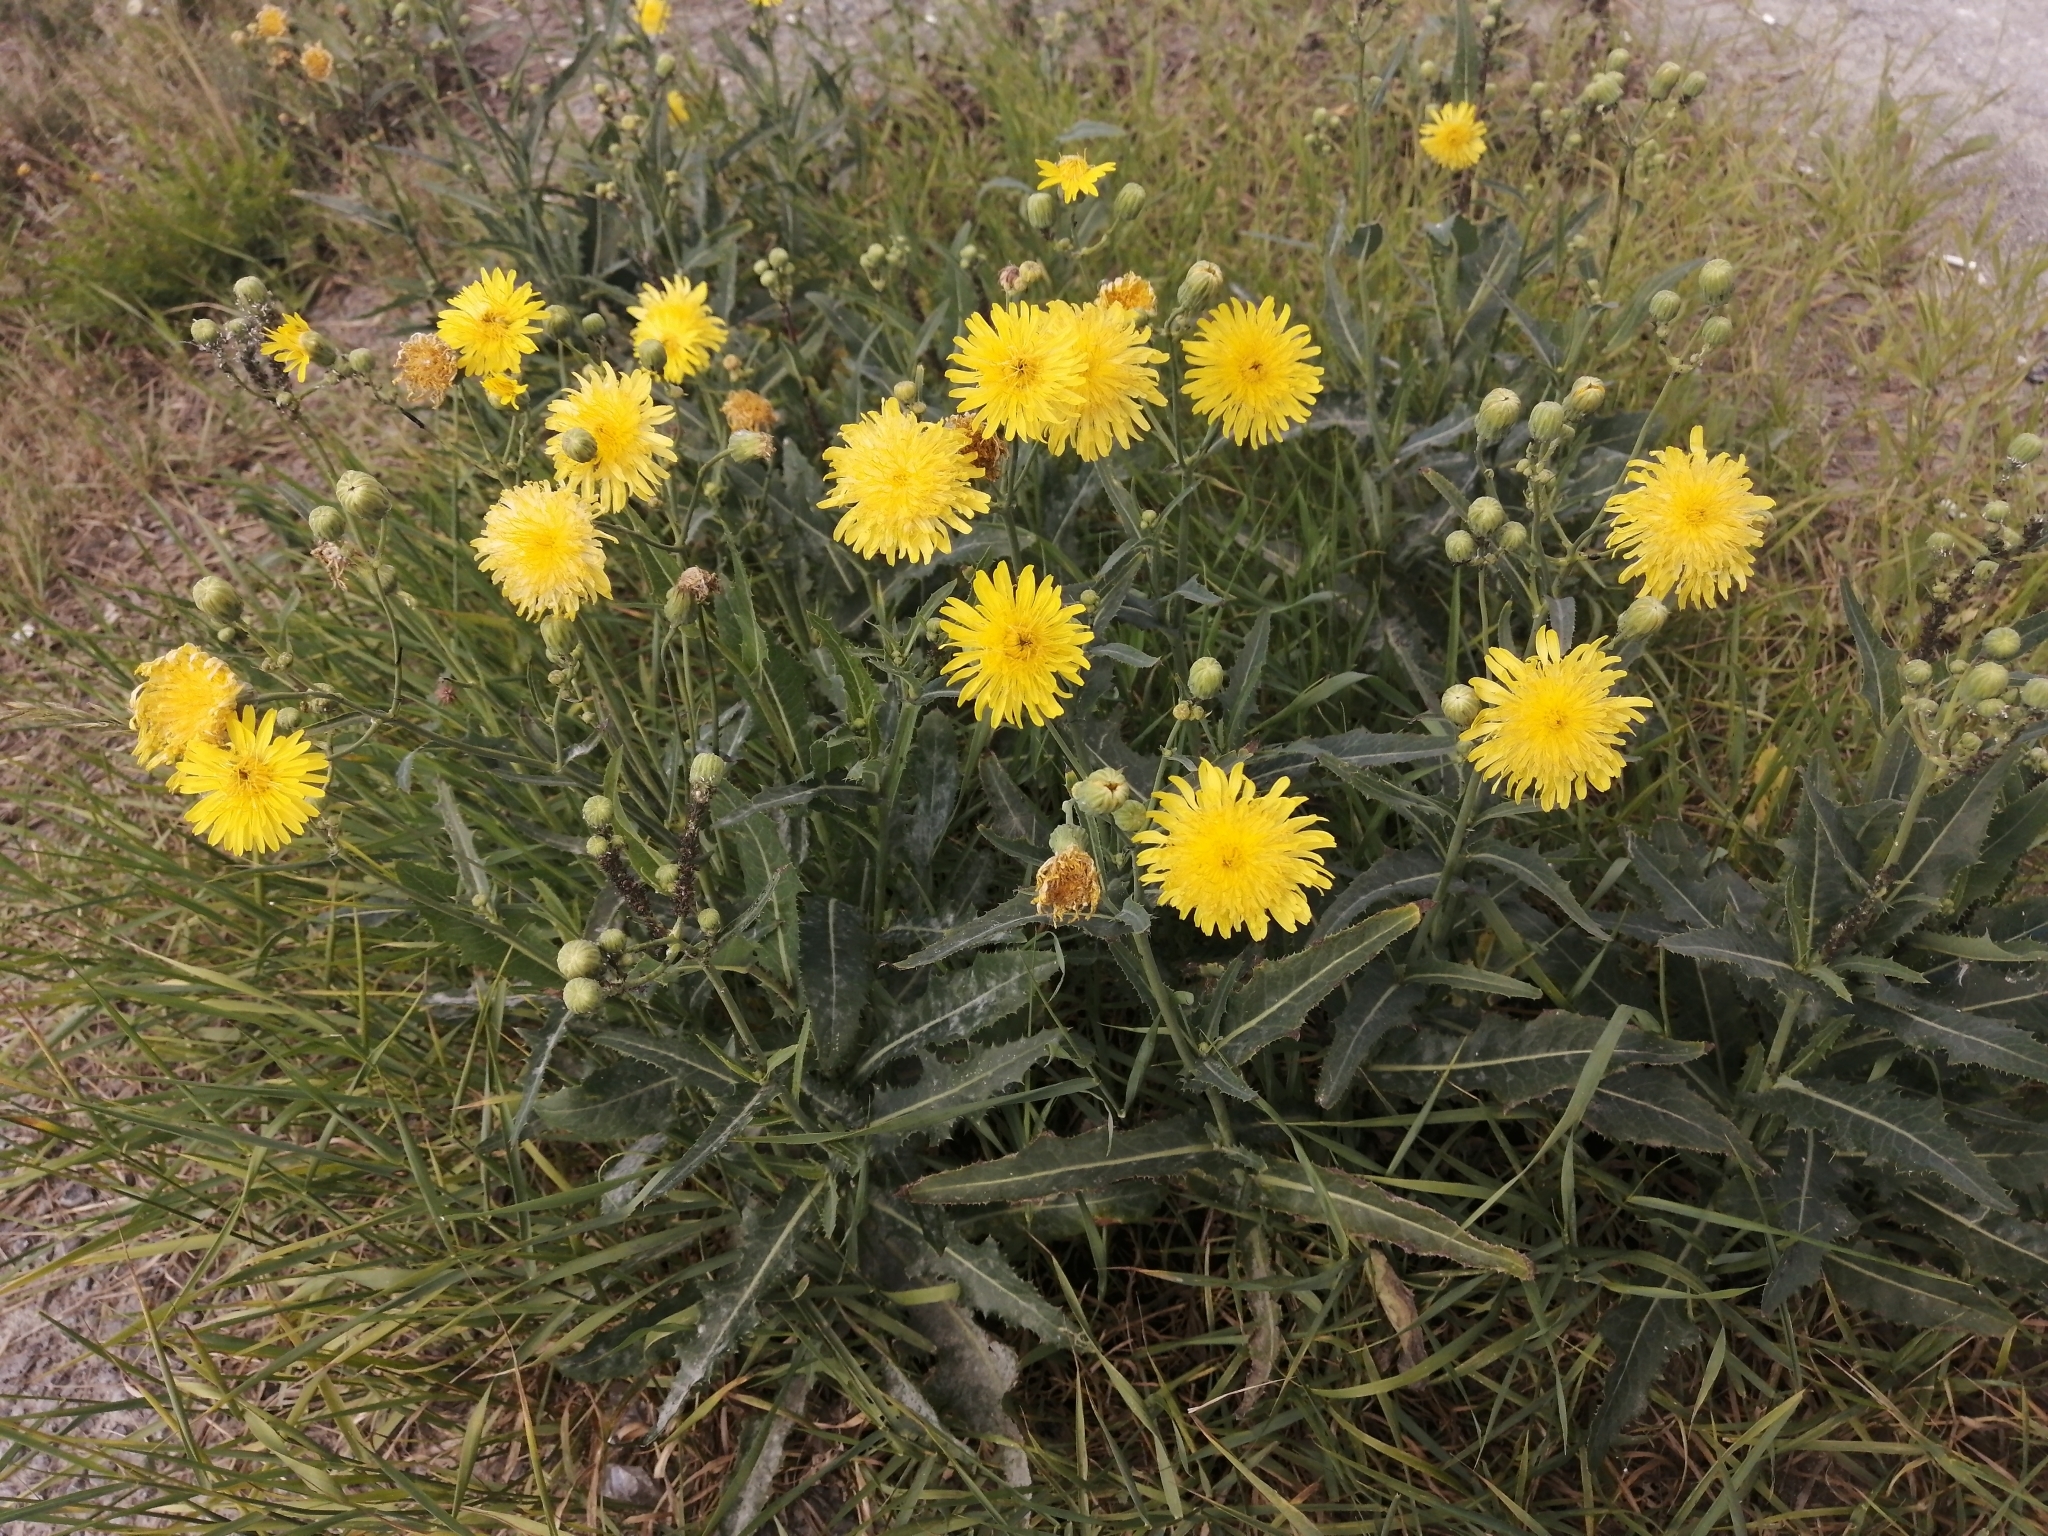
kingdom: Plantae
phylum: Tracheophyta
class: Magnoliopsida
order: Asterales
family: Asteraceae
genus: Sonchus
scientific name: Sonchus arvensis
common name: Perennial sow-thistle
